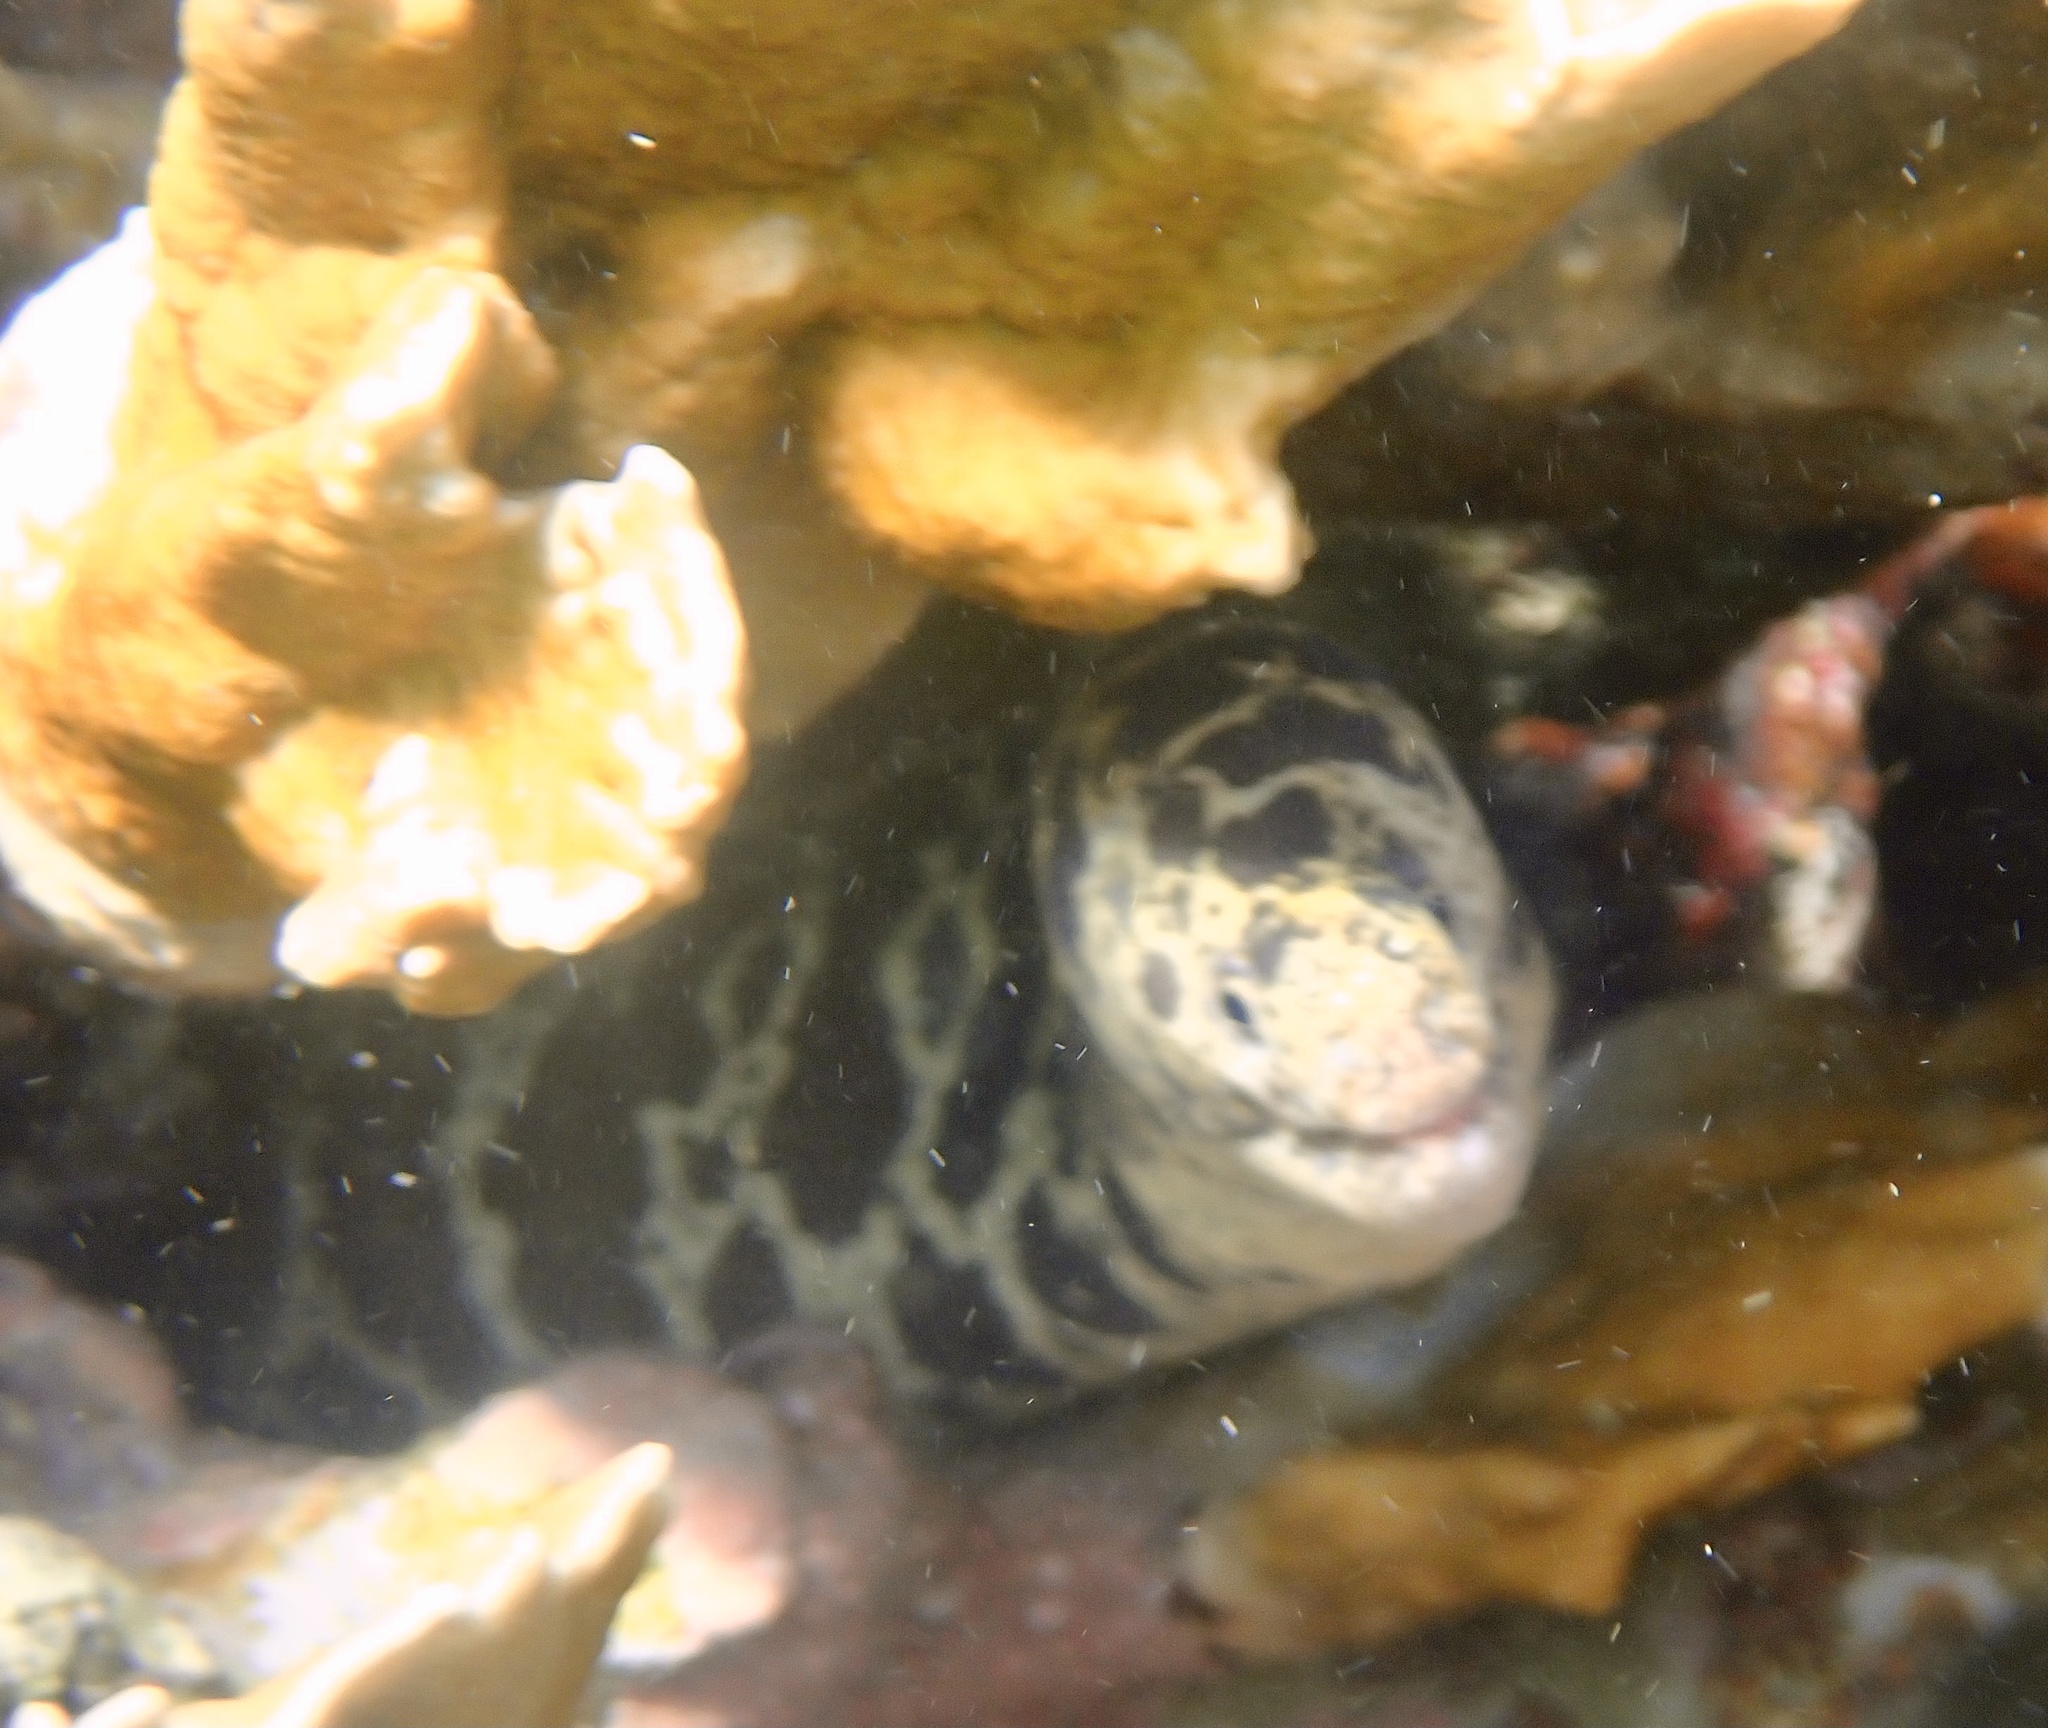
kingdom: Animalia
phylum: Chordata
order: Anguilliformes
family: Muraenidae
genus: Echidna
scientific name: Echidna catenata
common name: Chain moray
